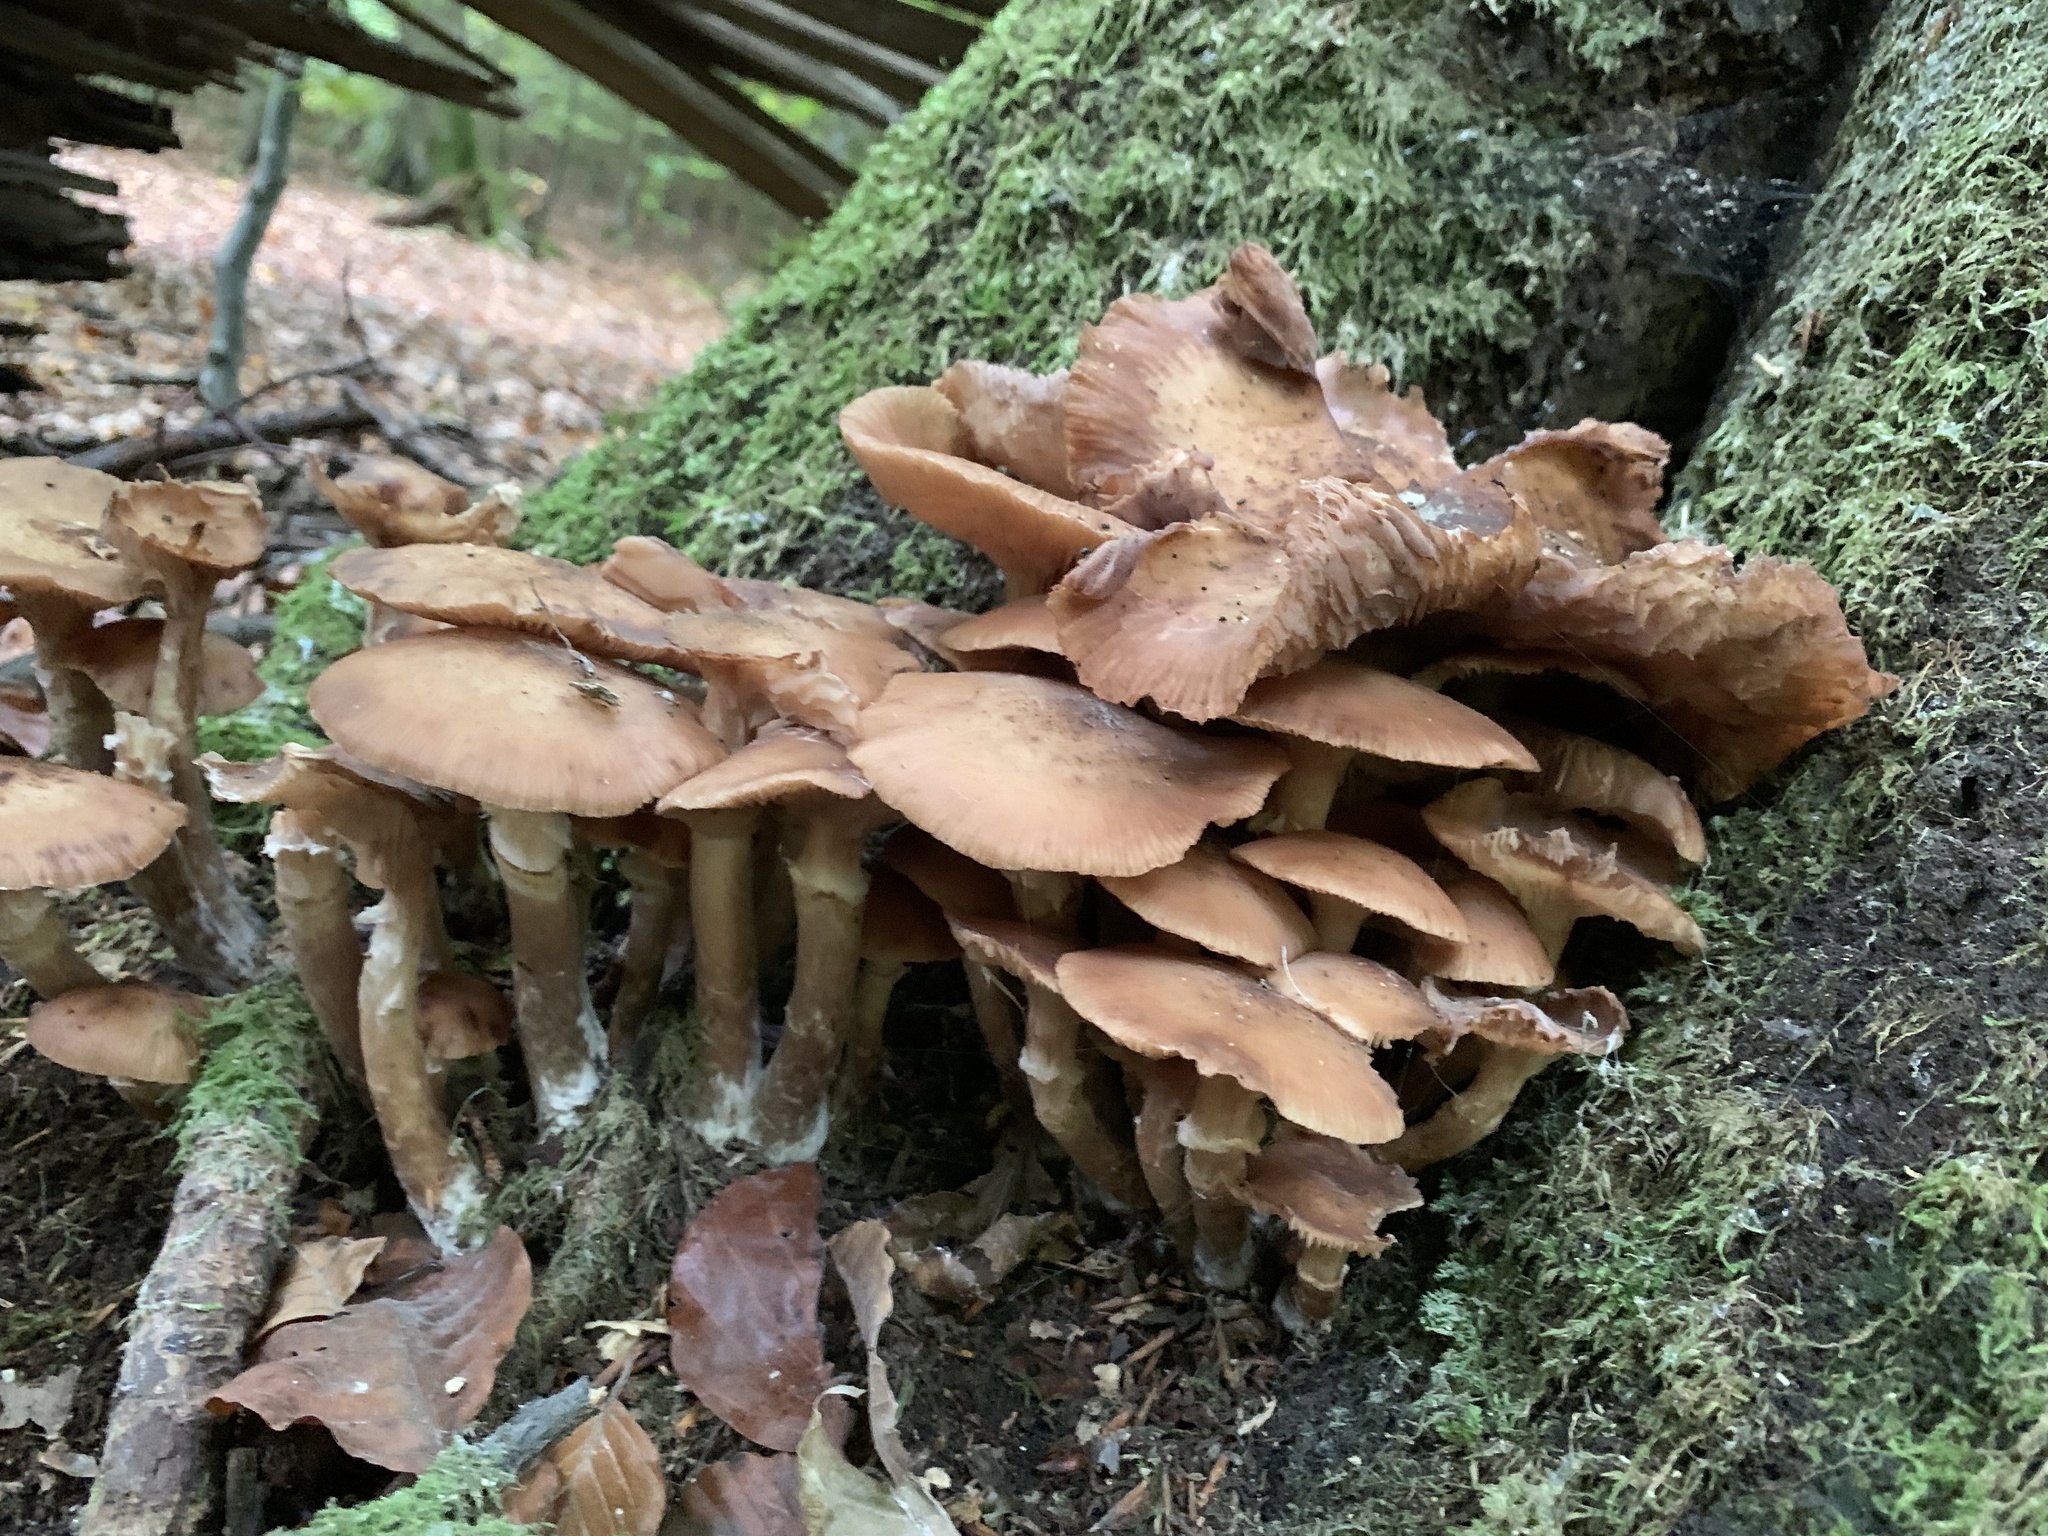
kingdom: Fungi
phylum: Basidiomycota
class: Agaricomycetes
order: Agaricales
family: Physalacriaceae
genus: Armillaria
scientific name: Armillaria cepistipes
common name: Mullet honey fungus
